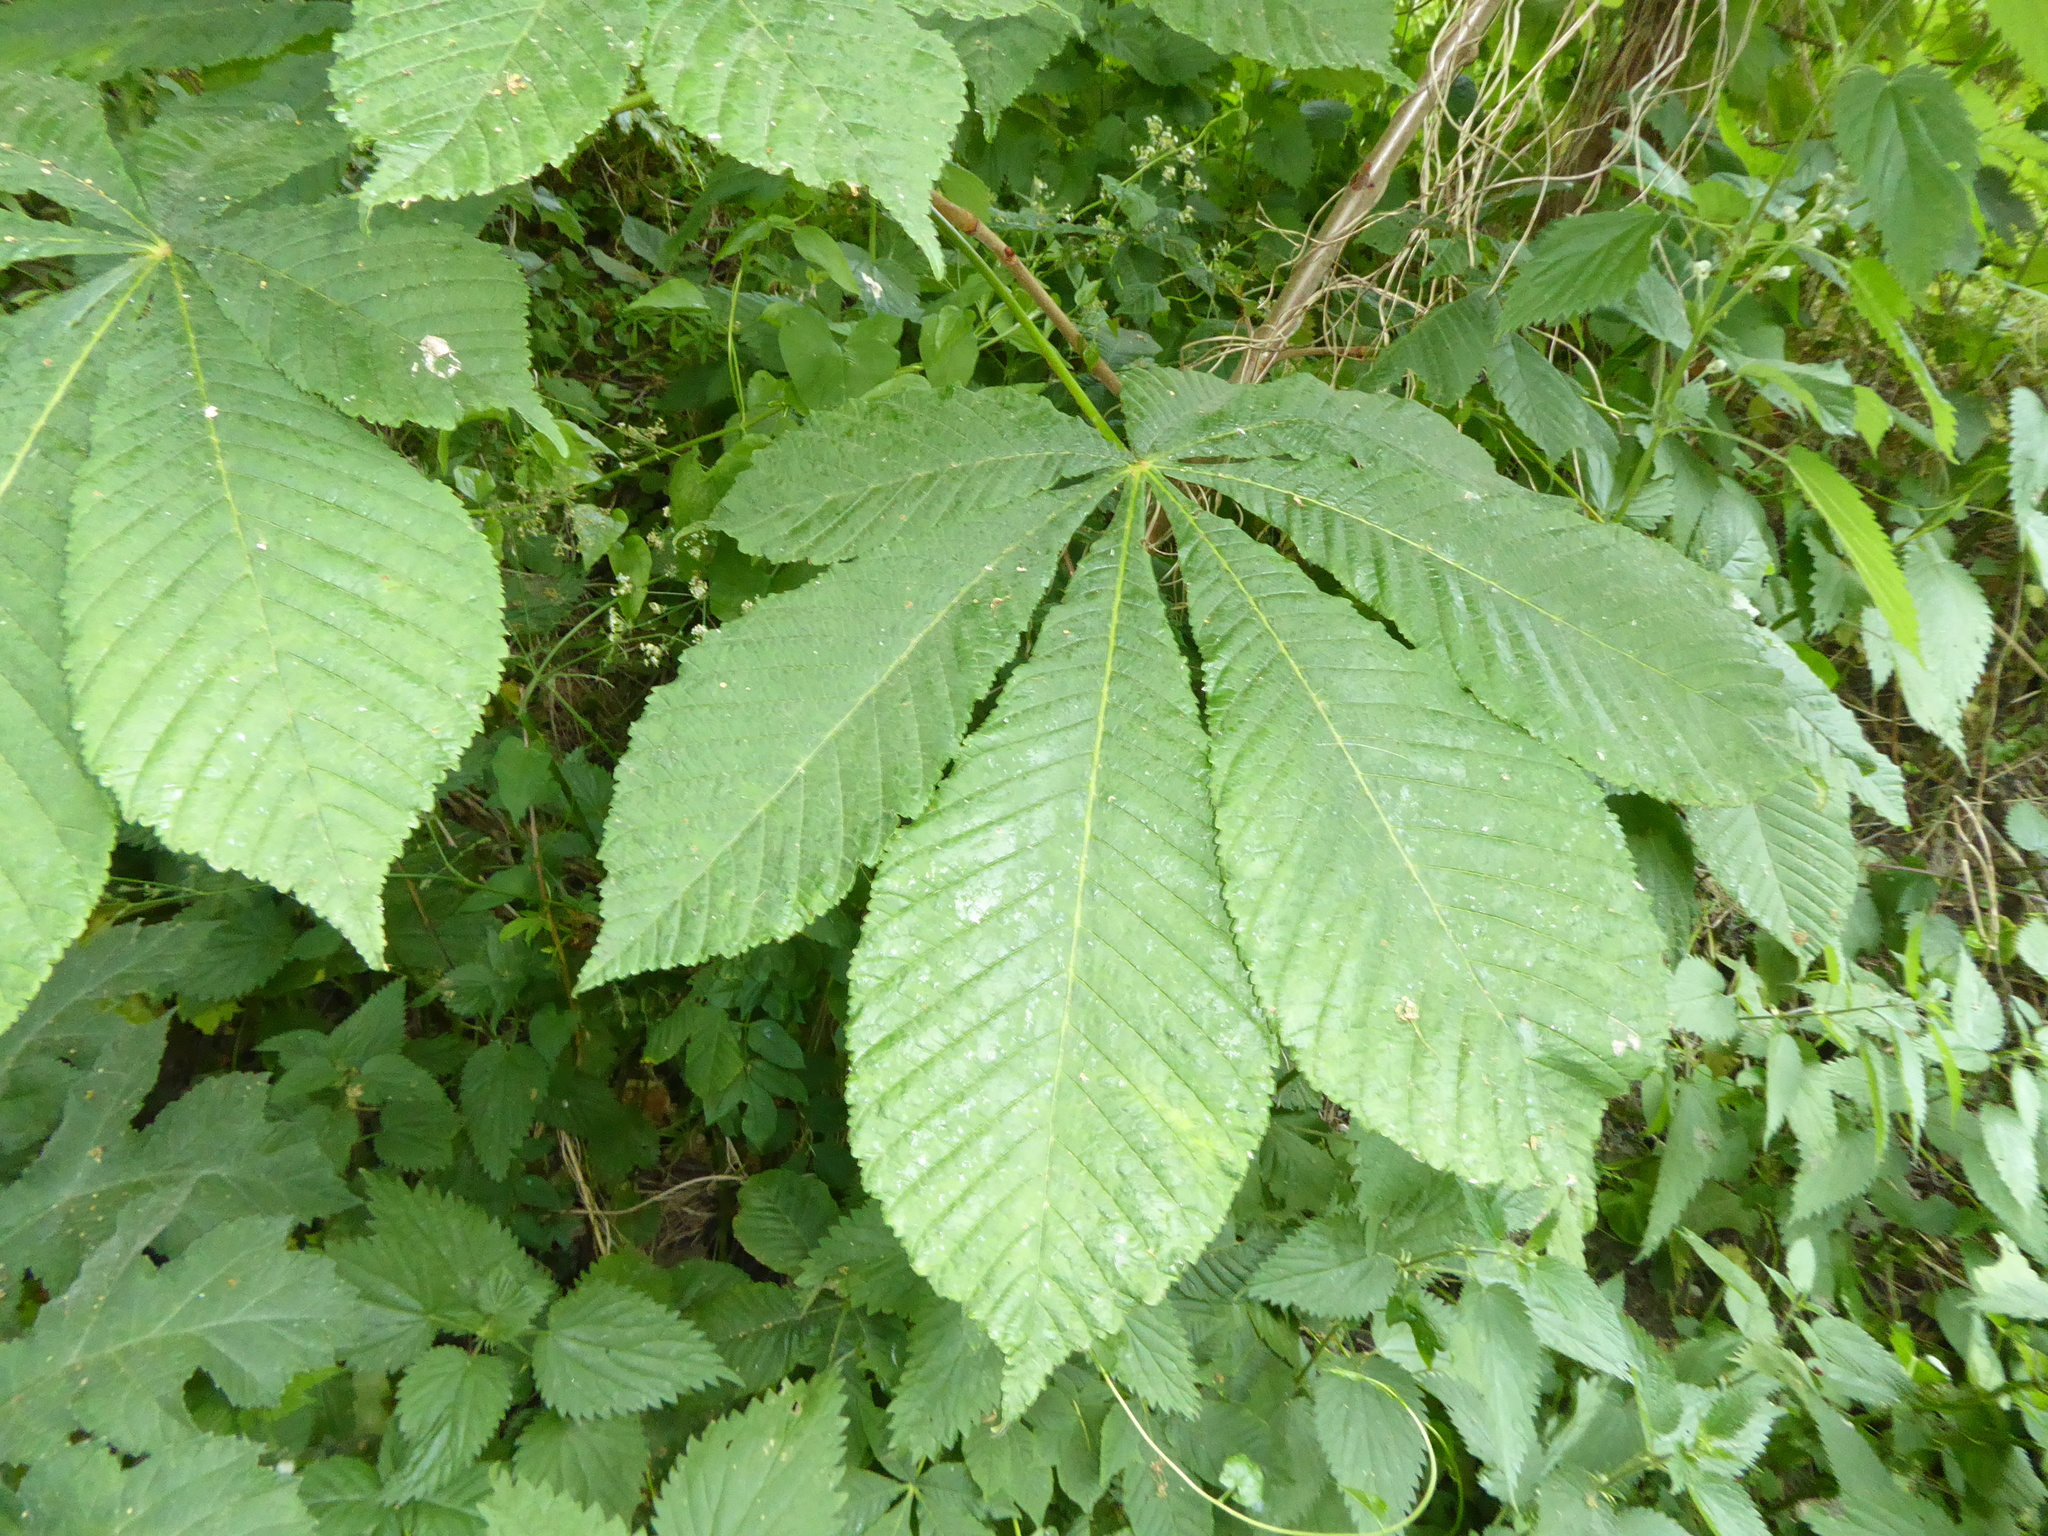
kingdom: Plantae
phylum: Tracheophyta
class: Magnoliopsida
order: Sapindales
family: Sapindaceae
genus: Aesculus
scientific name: Aesculus hippocastanum
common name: Horse-chestnut
